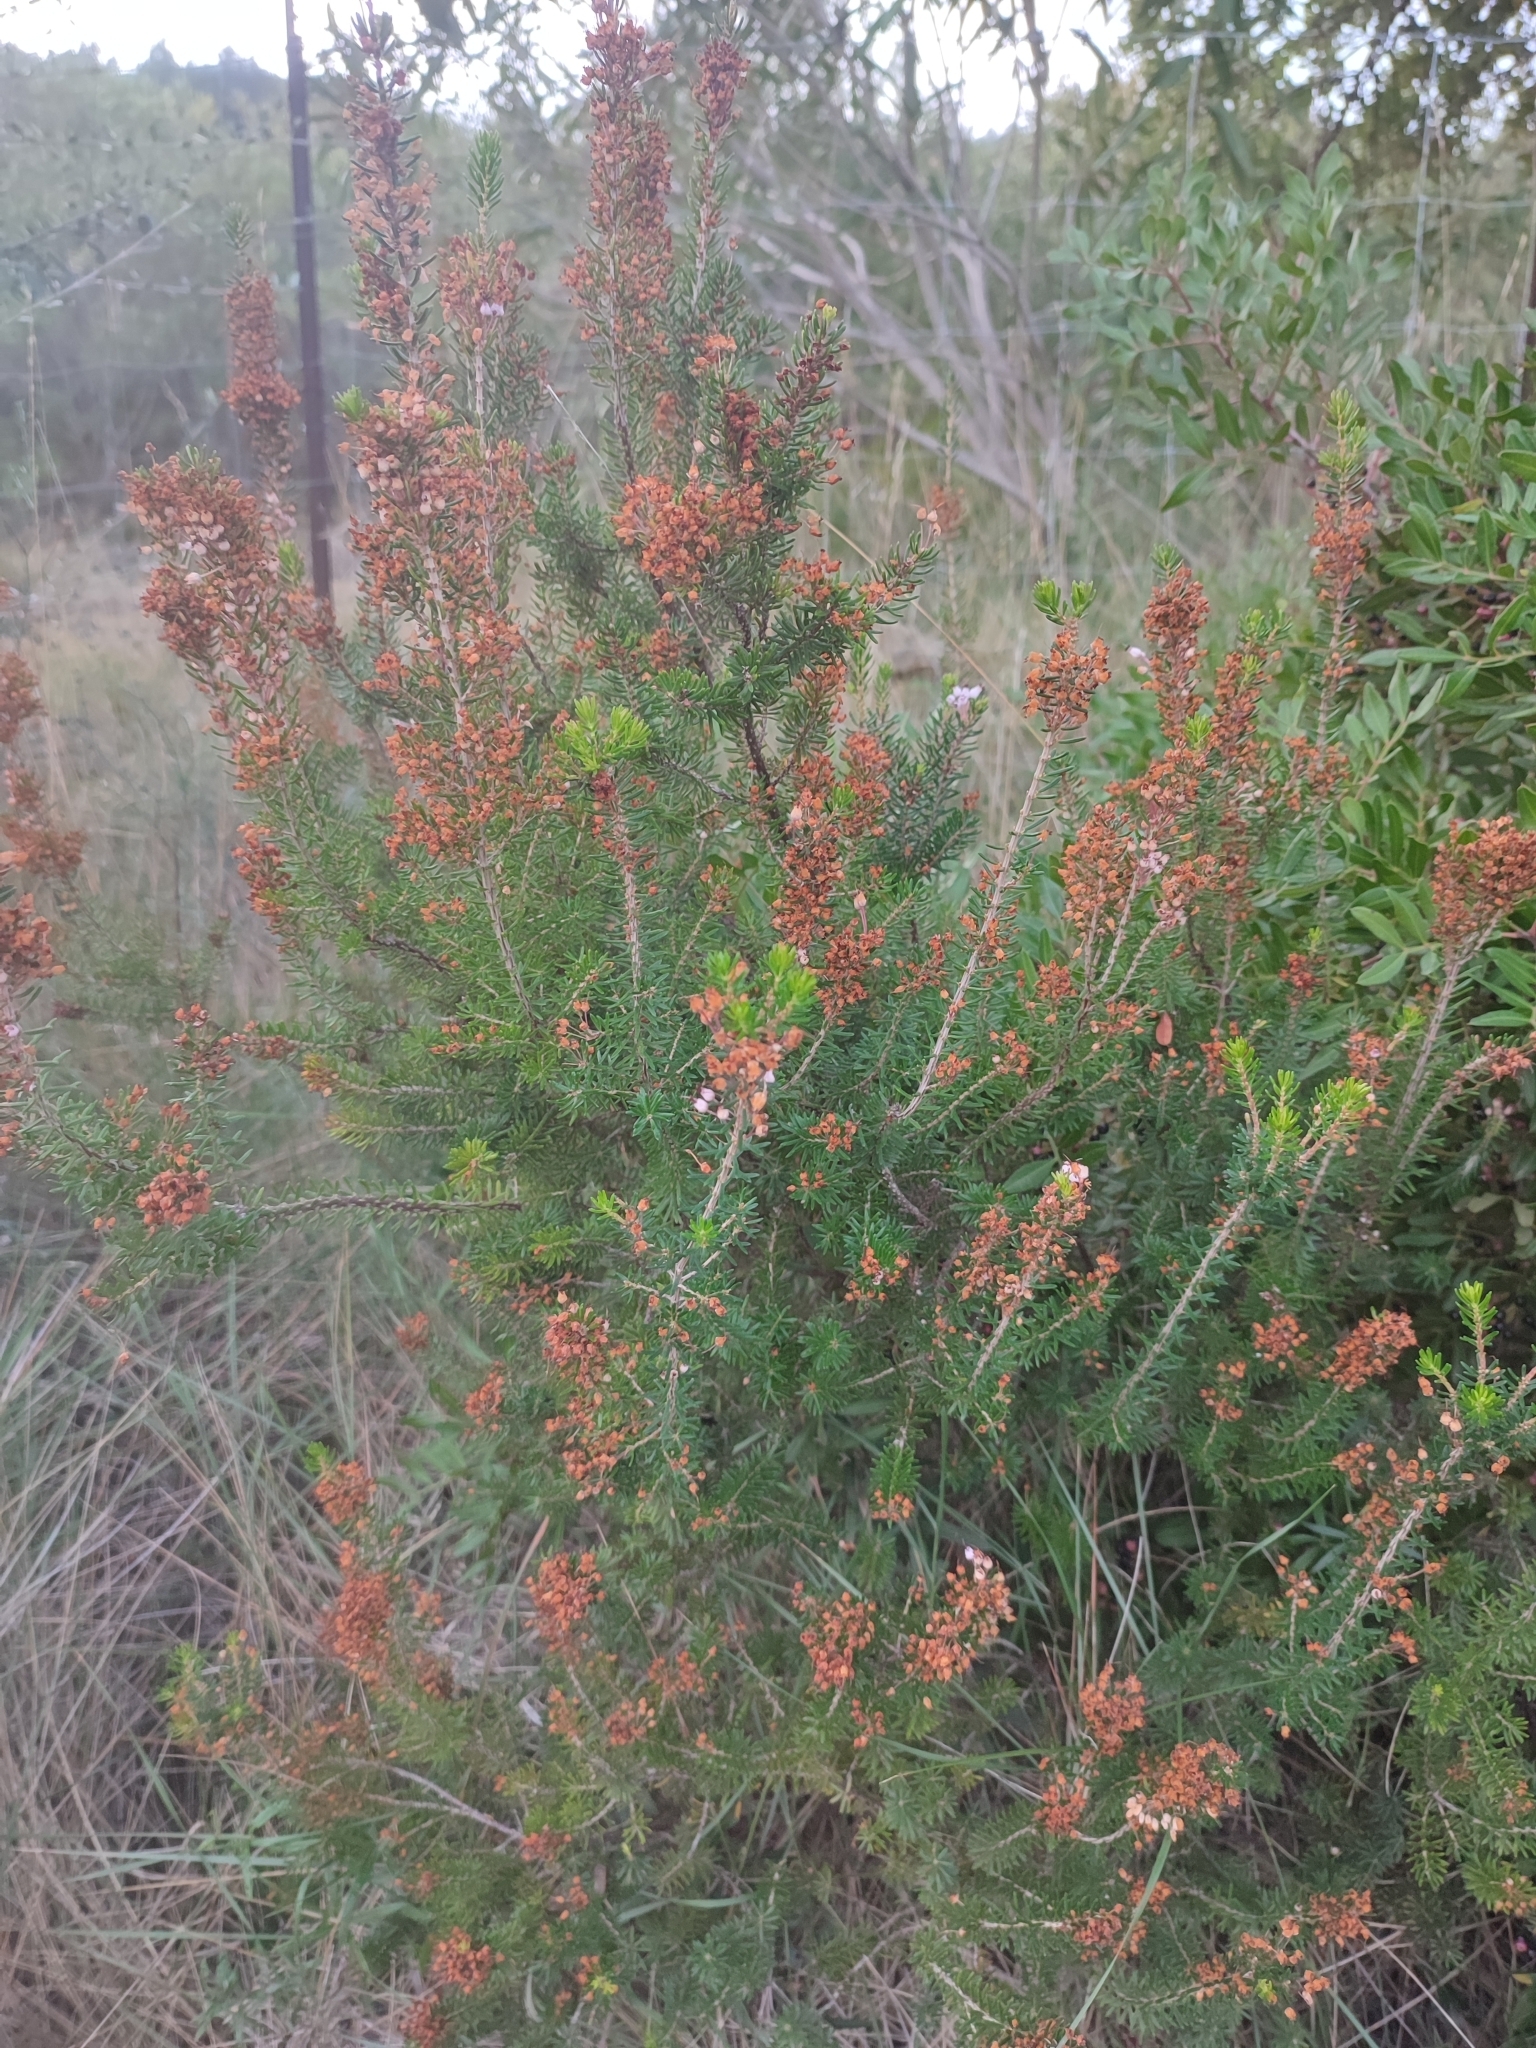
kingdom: Plantae
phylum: Tracheophyta
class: Magnoliopsida
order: Ericales
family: Ericaceae
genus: Erica
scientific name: Erica multiflora
